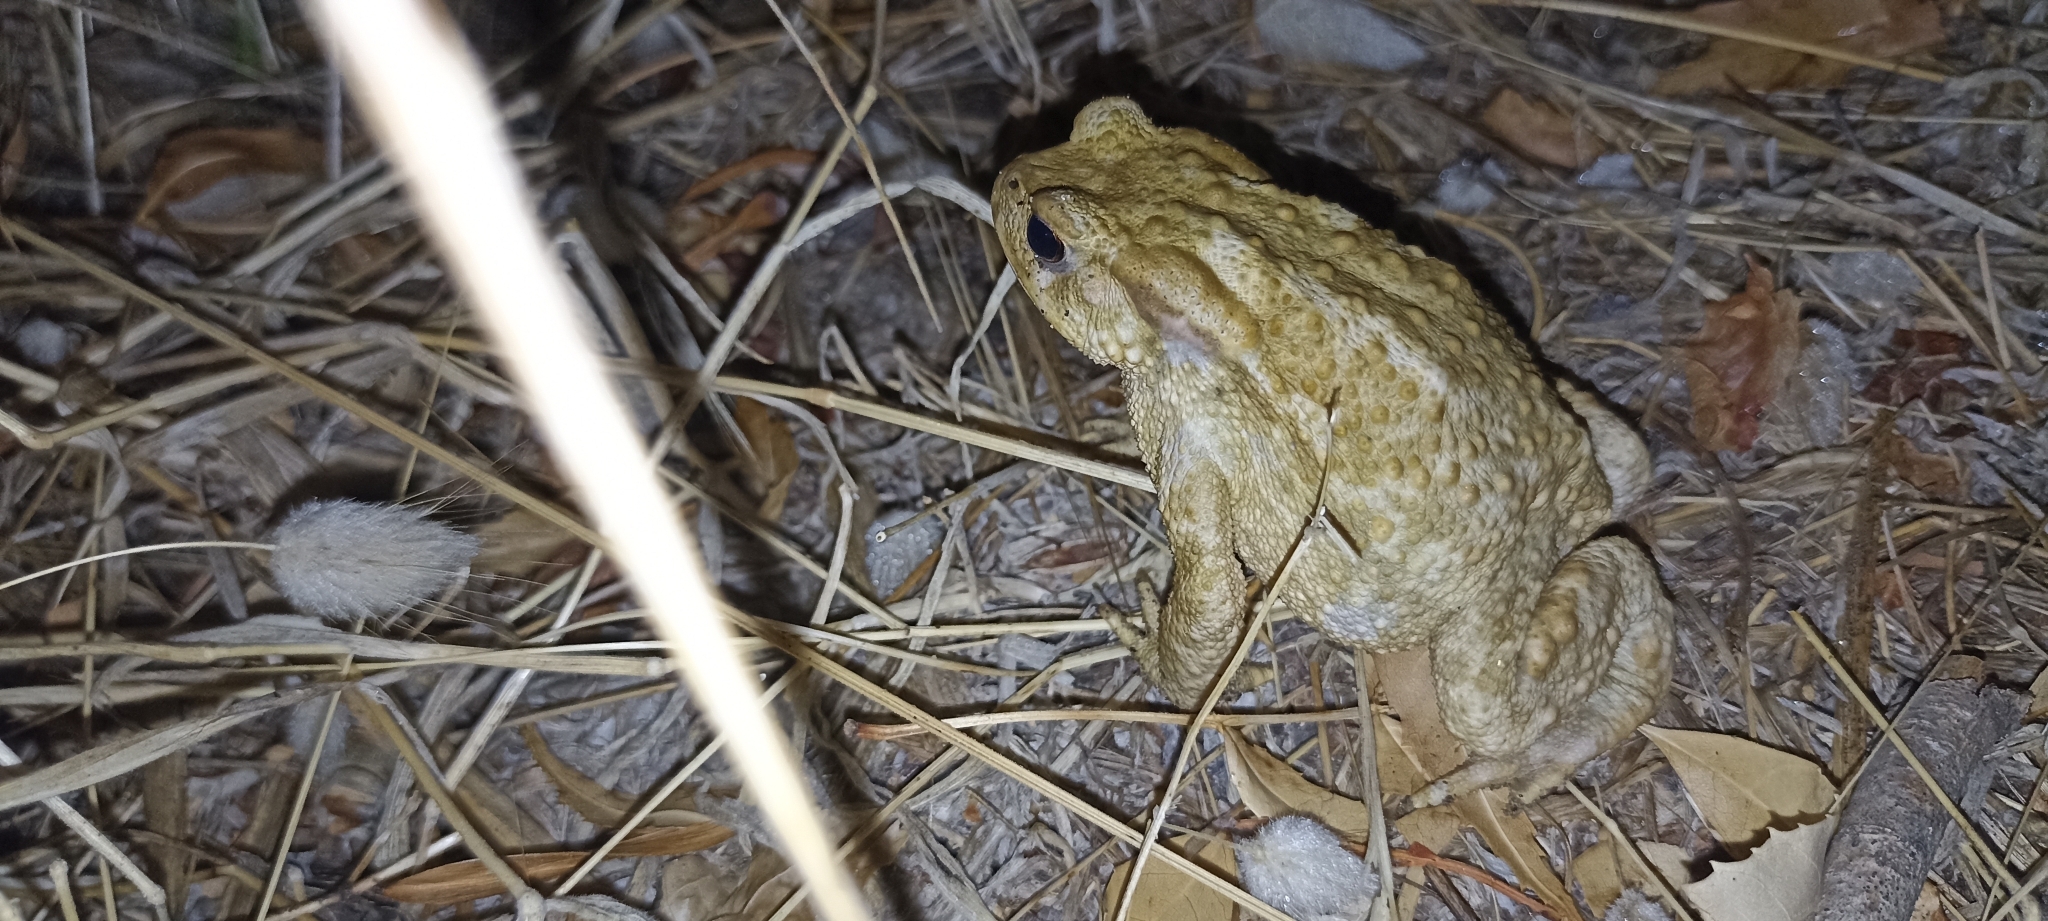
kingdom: Animalia
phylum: Chordata
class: Amphibia
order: Anura
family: Bufonidae
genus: Bufo
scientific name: Bufo spinosus
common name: Western common toad
